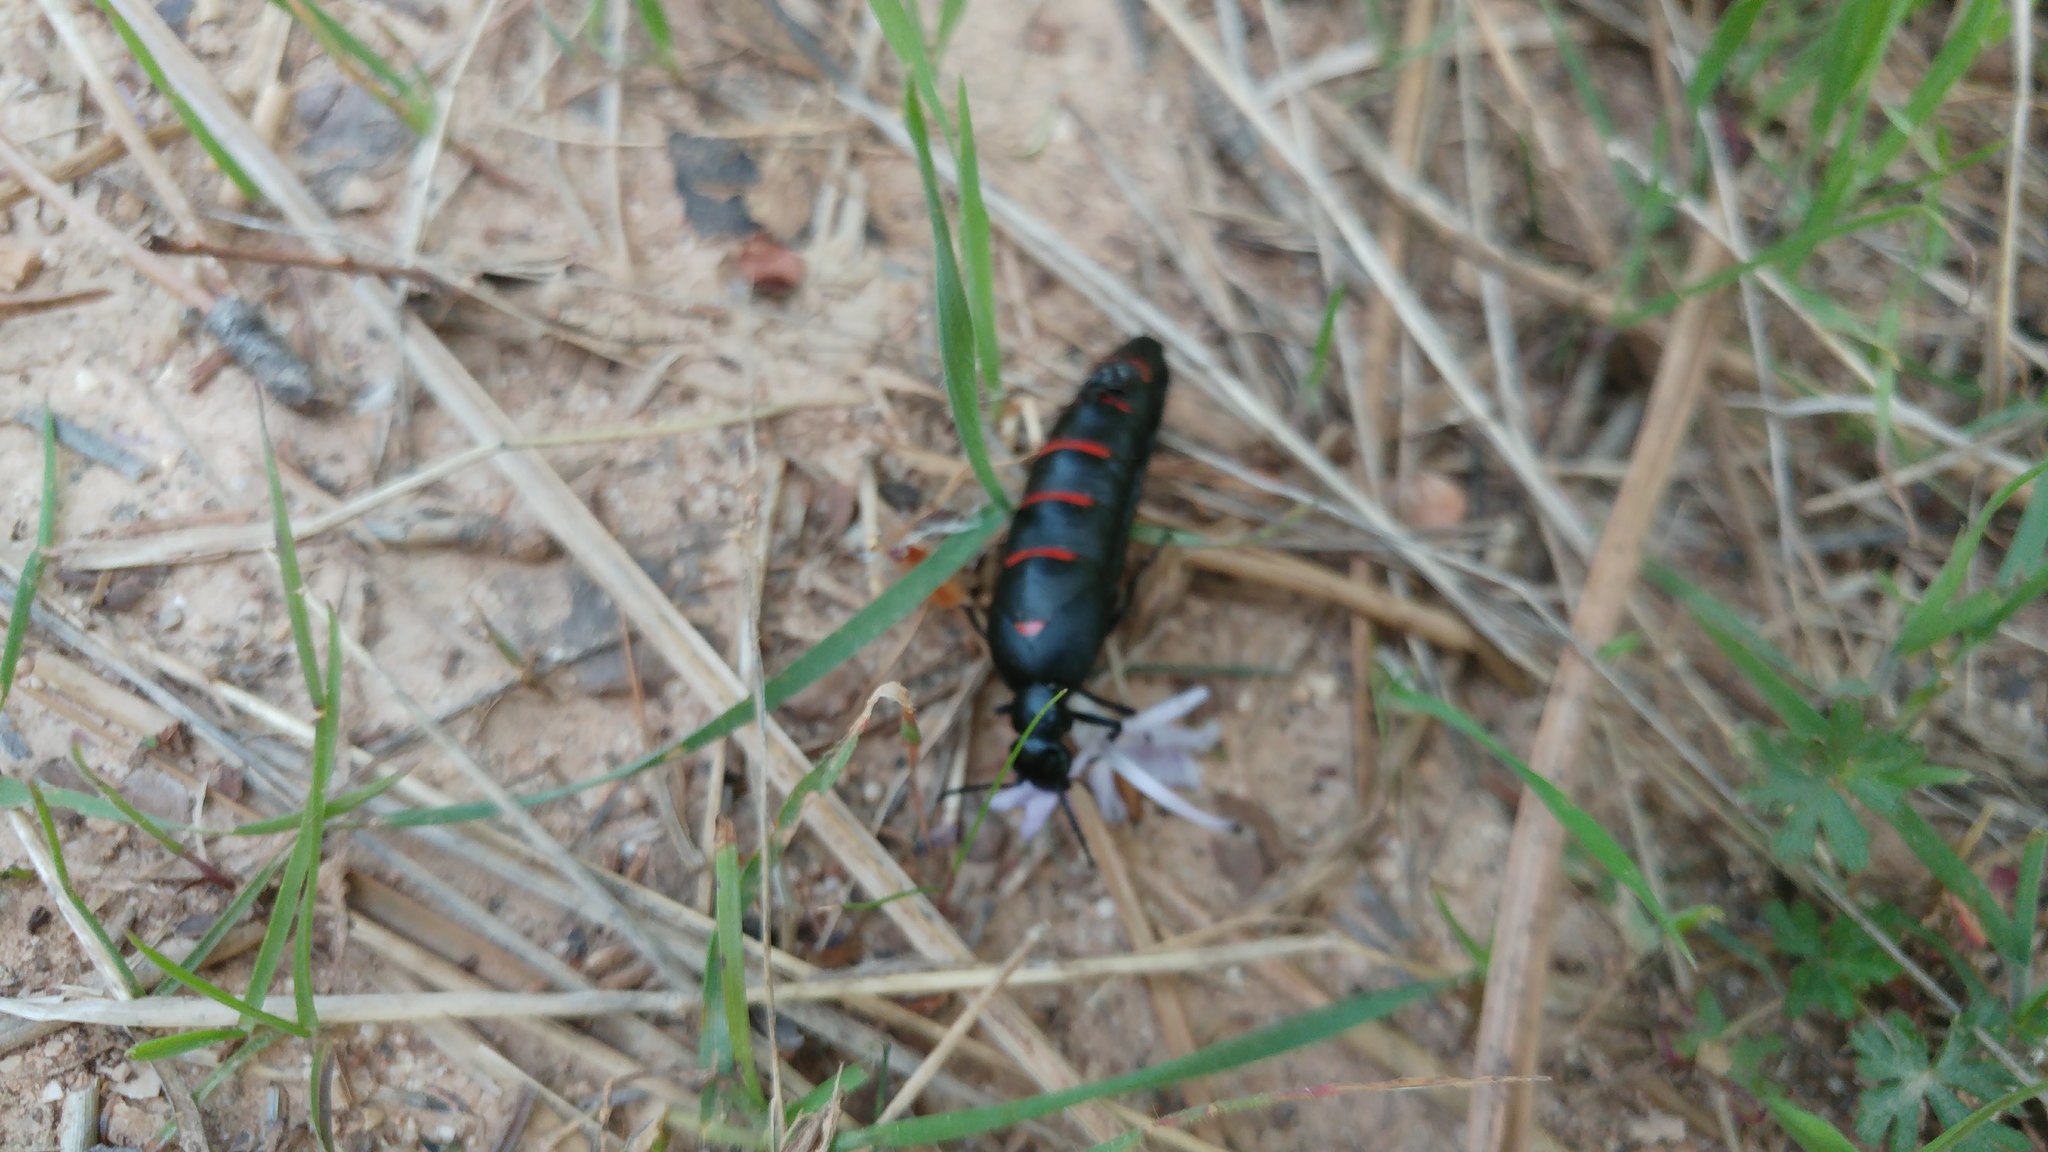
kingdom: Animalia
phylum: Arthropoda
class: Insecta
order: Coleoptera
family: Meloidae
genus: Berberomeloe
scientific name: Berberomeloe majalis
